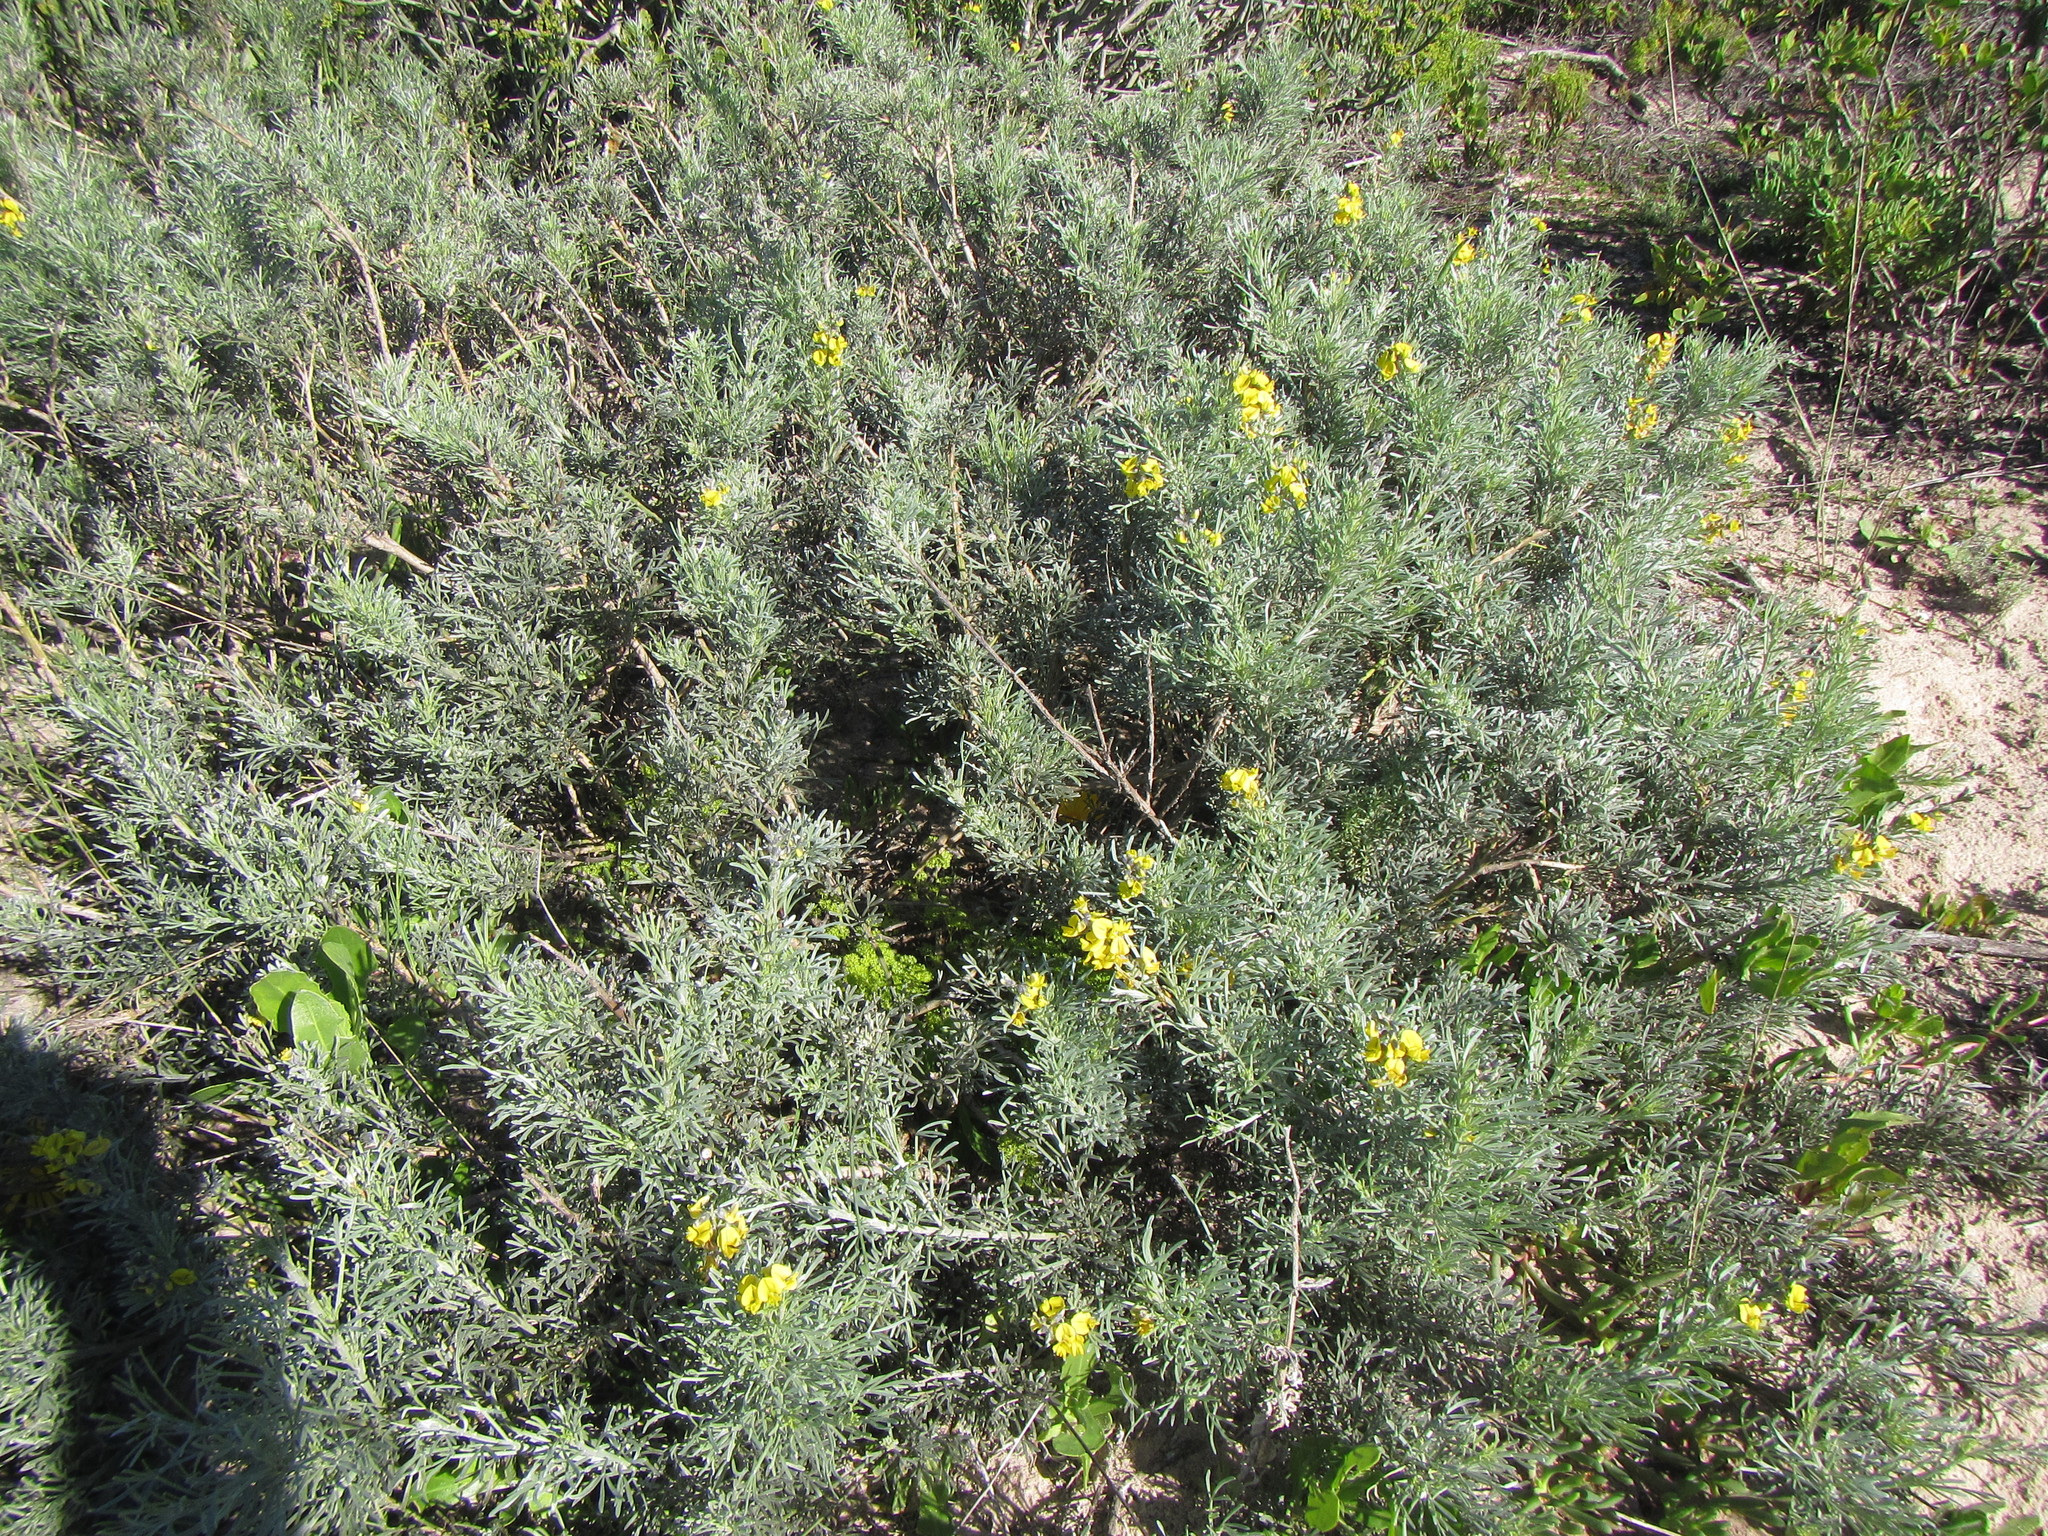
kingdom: Plantae
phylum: Tracheophyta
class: Magnoliopsida
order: Fabales
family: Fabaceae
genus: Calobota
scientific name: Calobota angustifolia
